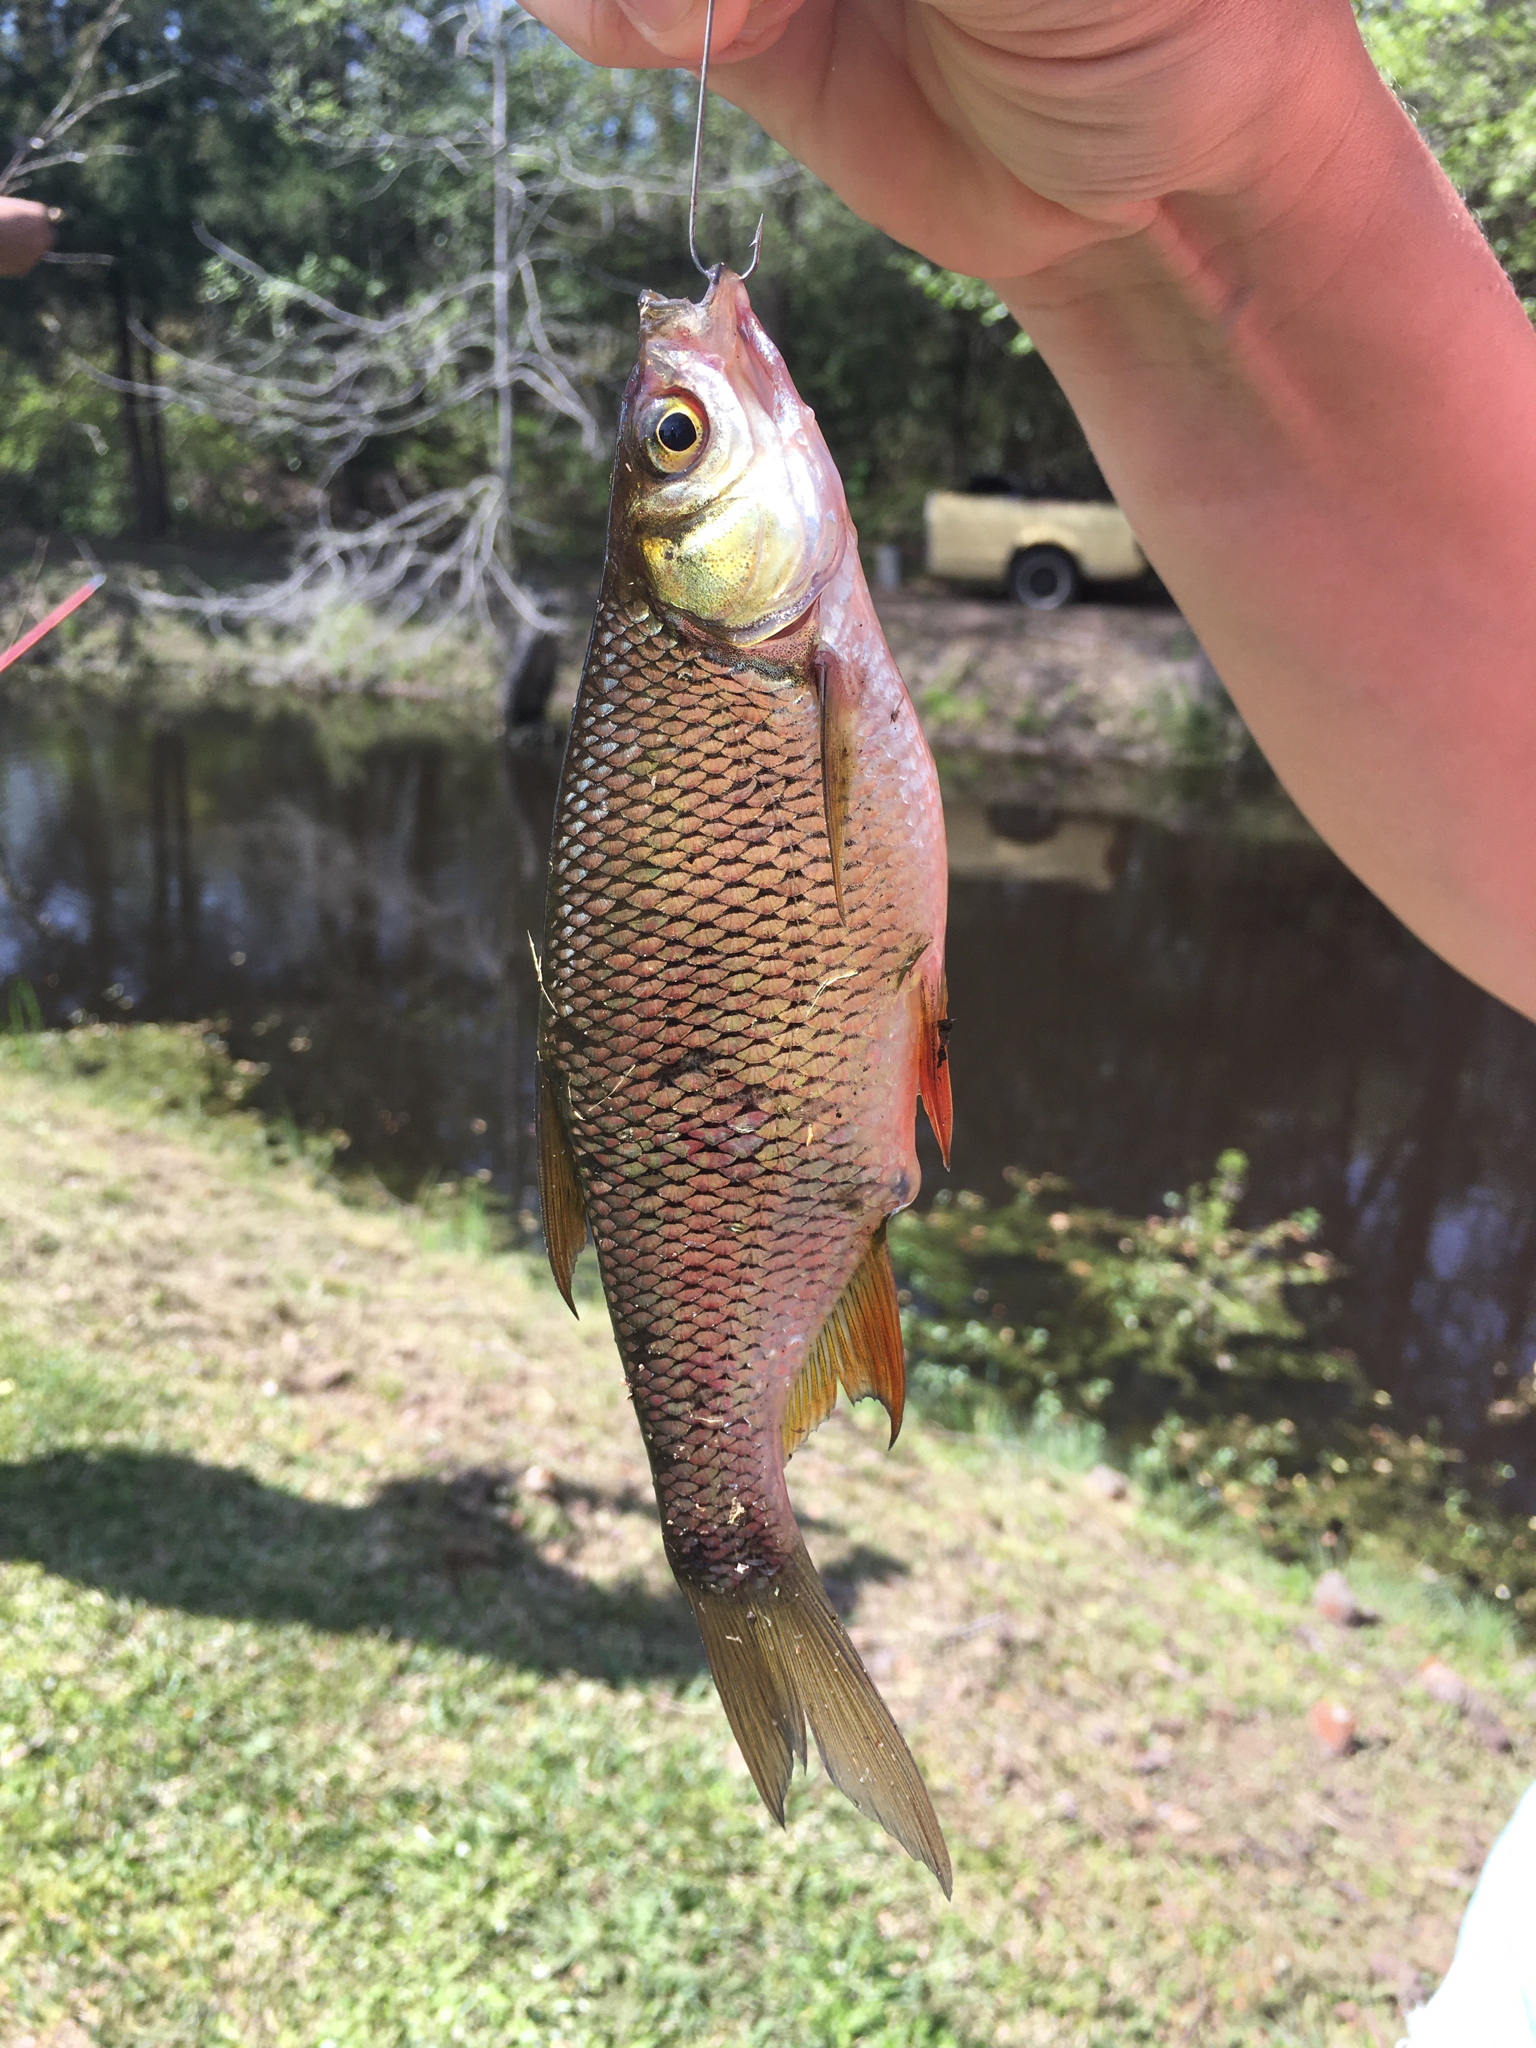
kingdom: Animalia
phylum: Chordata
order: Cypriniformes
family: Cyprinidae
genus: Notemigonus
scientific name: Notemigonus crysoleucas
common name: Golden shiner
